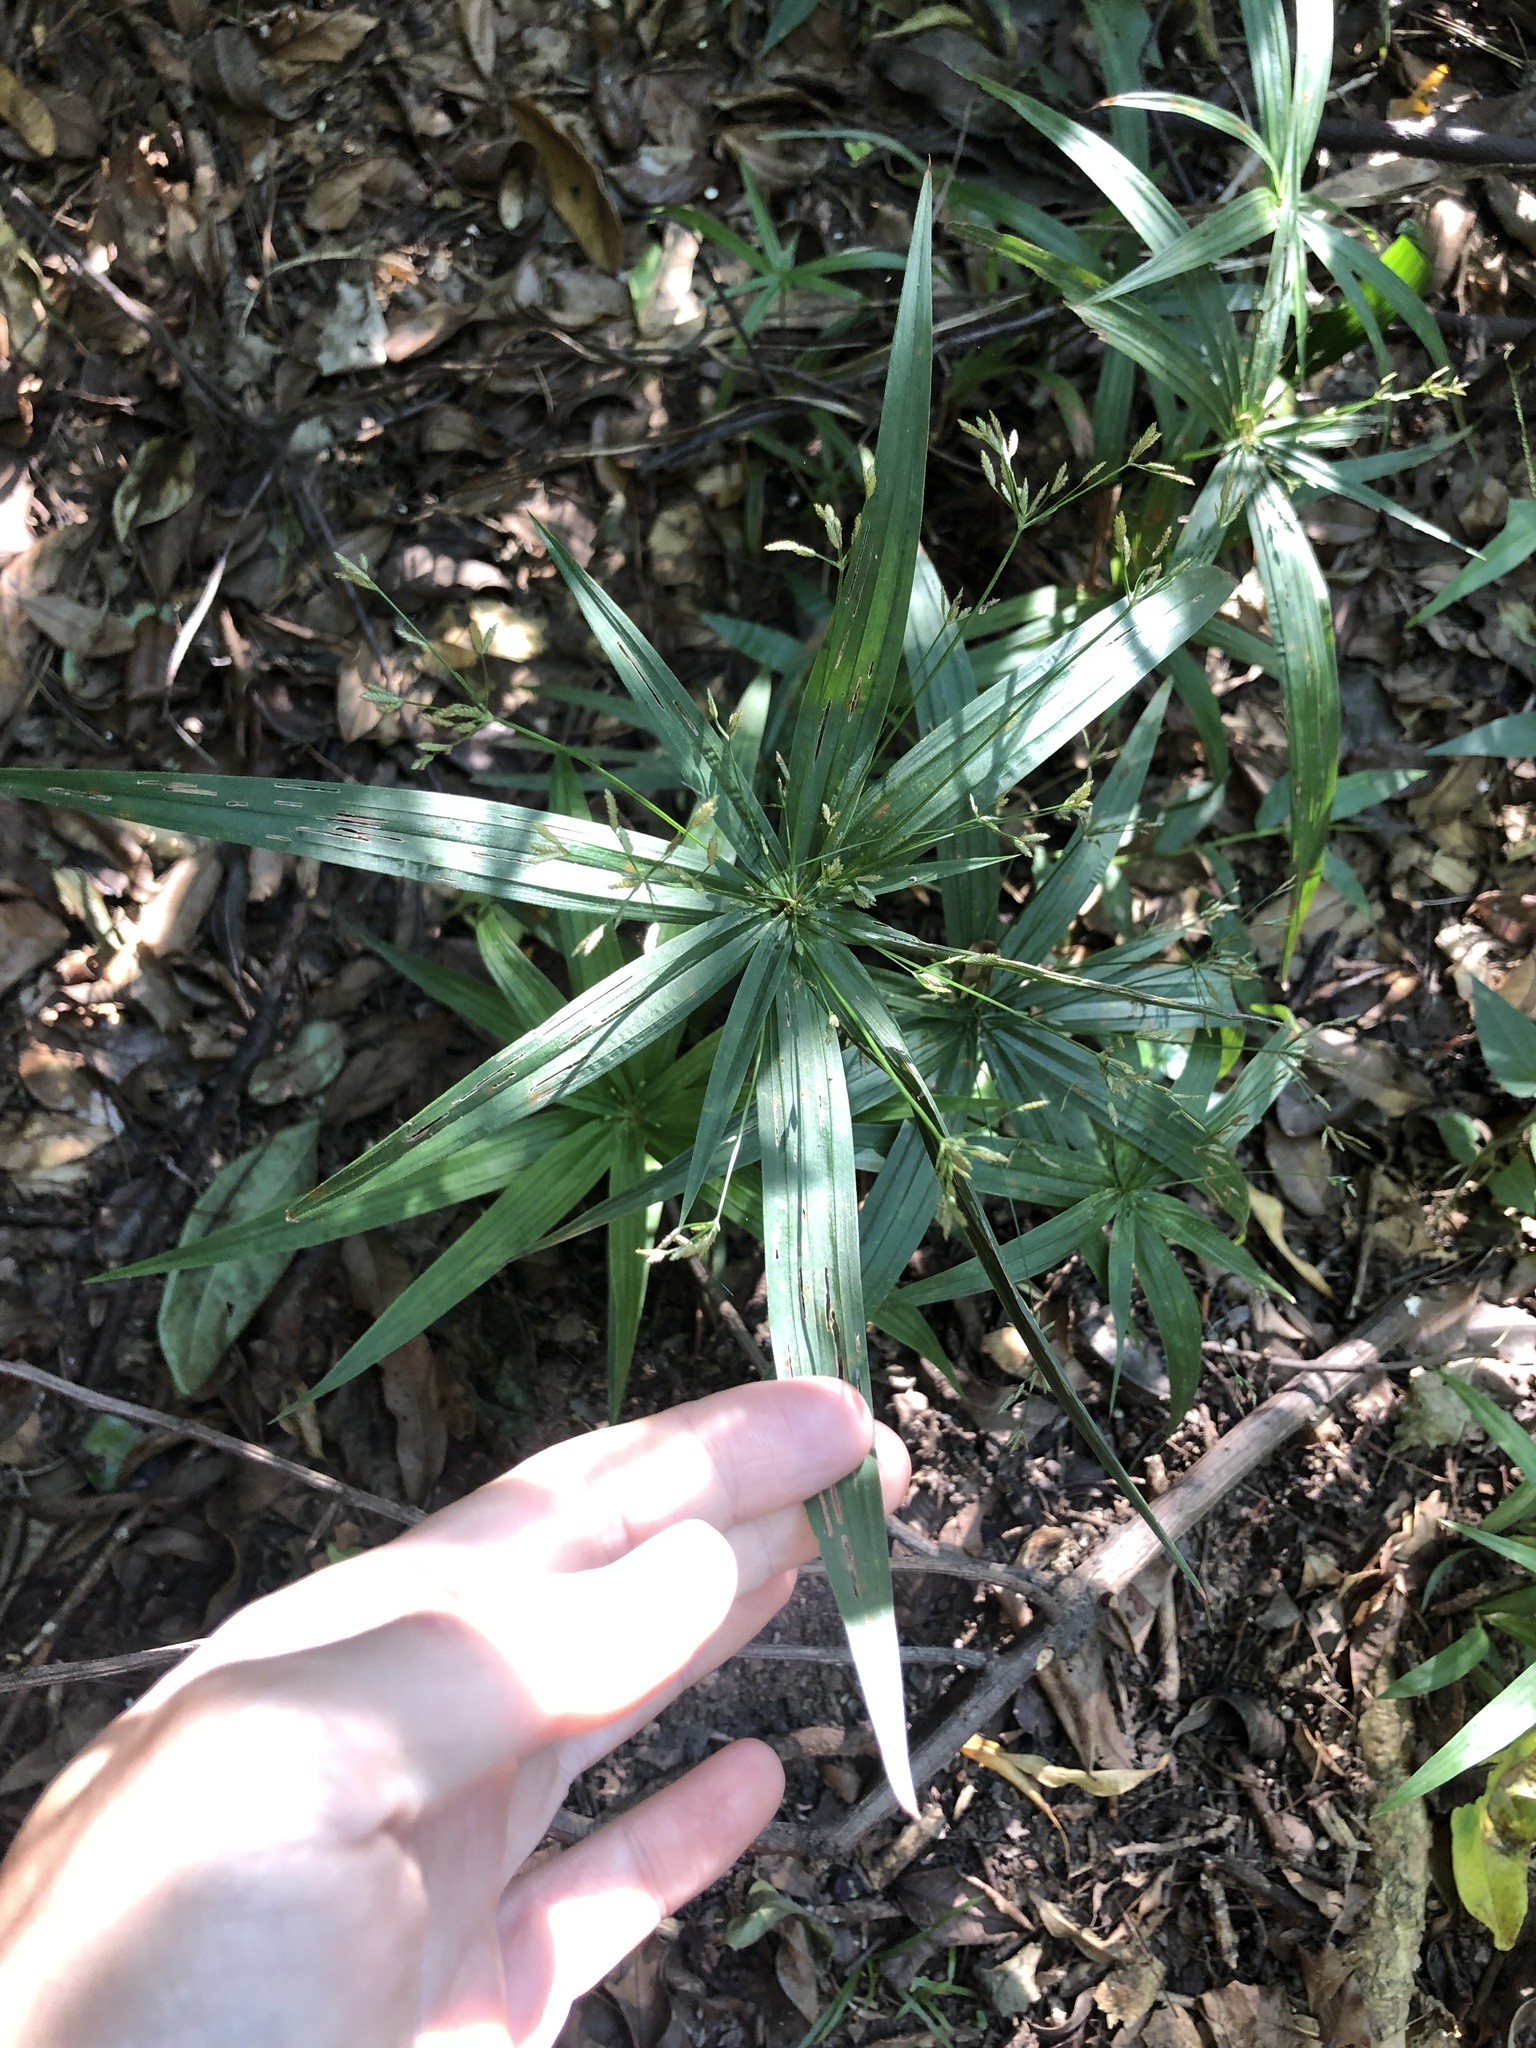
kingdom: Plantae
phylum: Tracheophyta
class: Liliopsida
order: Poales
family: Cyperaceae
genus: Cyperus
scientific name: Cyperus albostriatus
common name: Dwarf umbrella-grass
